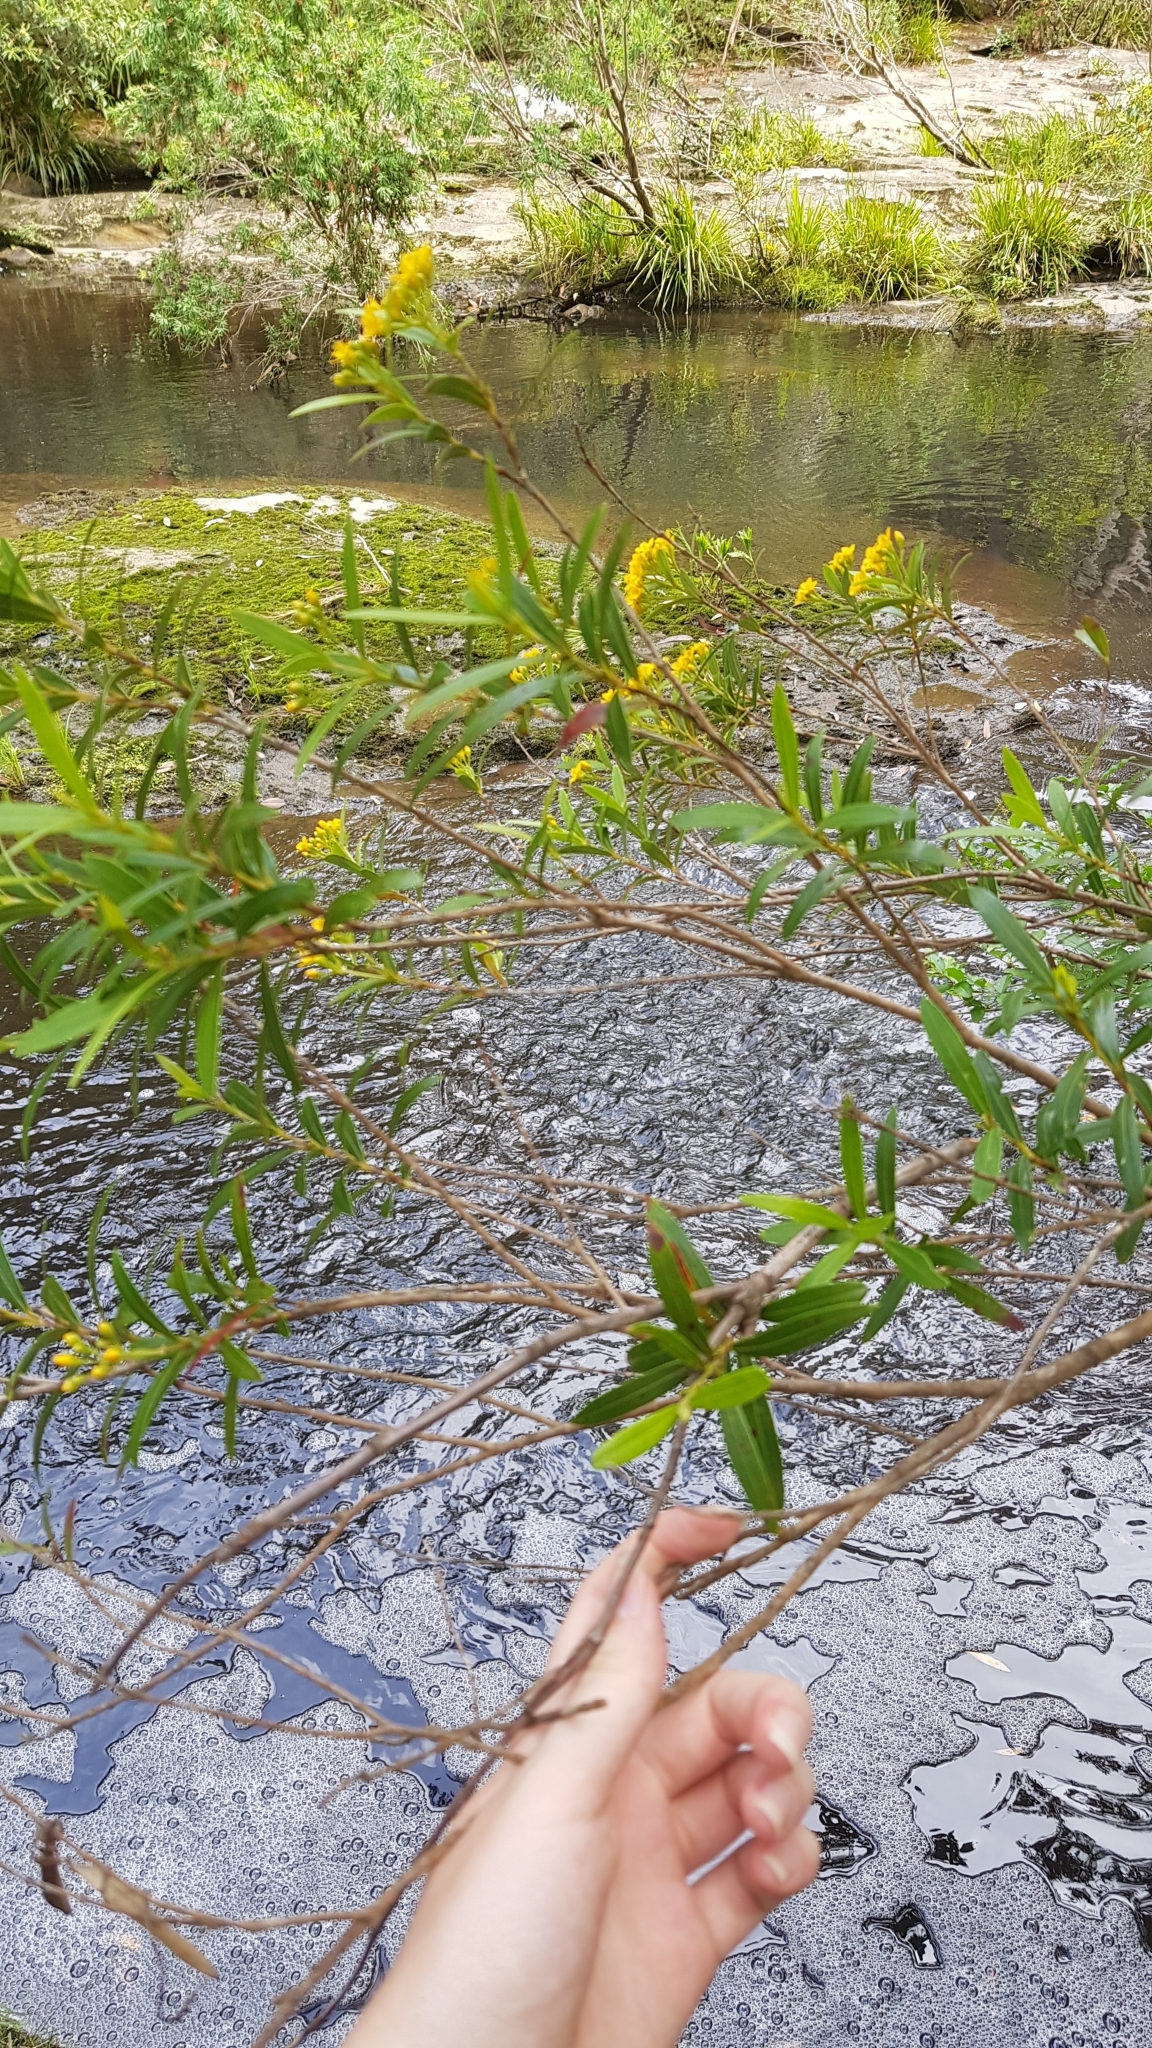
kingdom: Plantae
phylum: Tracheophyta
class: Magnoliopsida
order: Myrtales
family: Myrtaceae
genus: Tristania
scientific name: Tristania neriifolia
